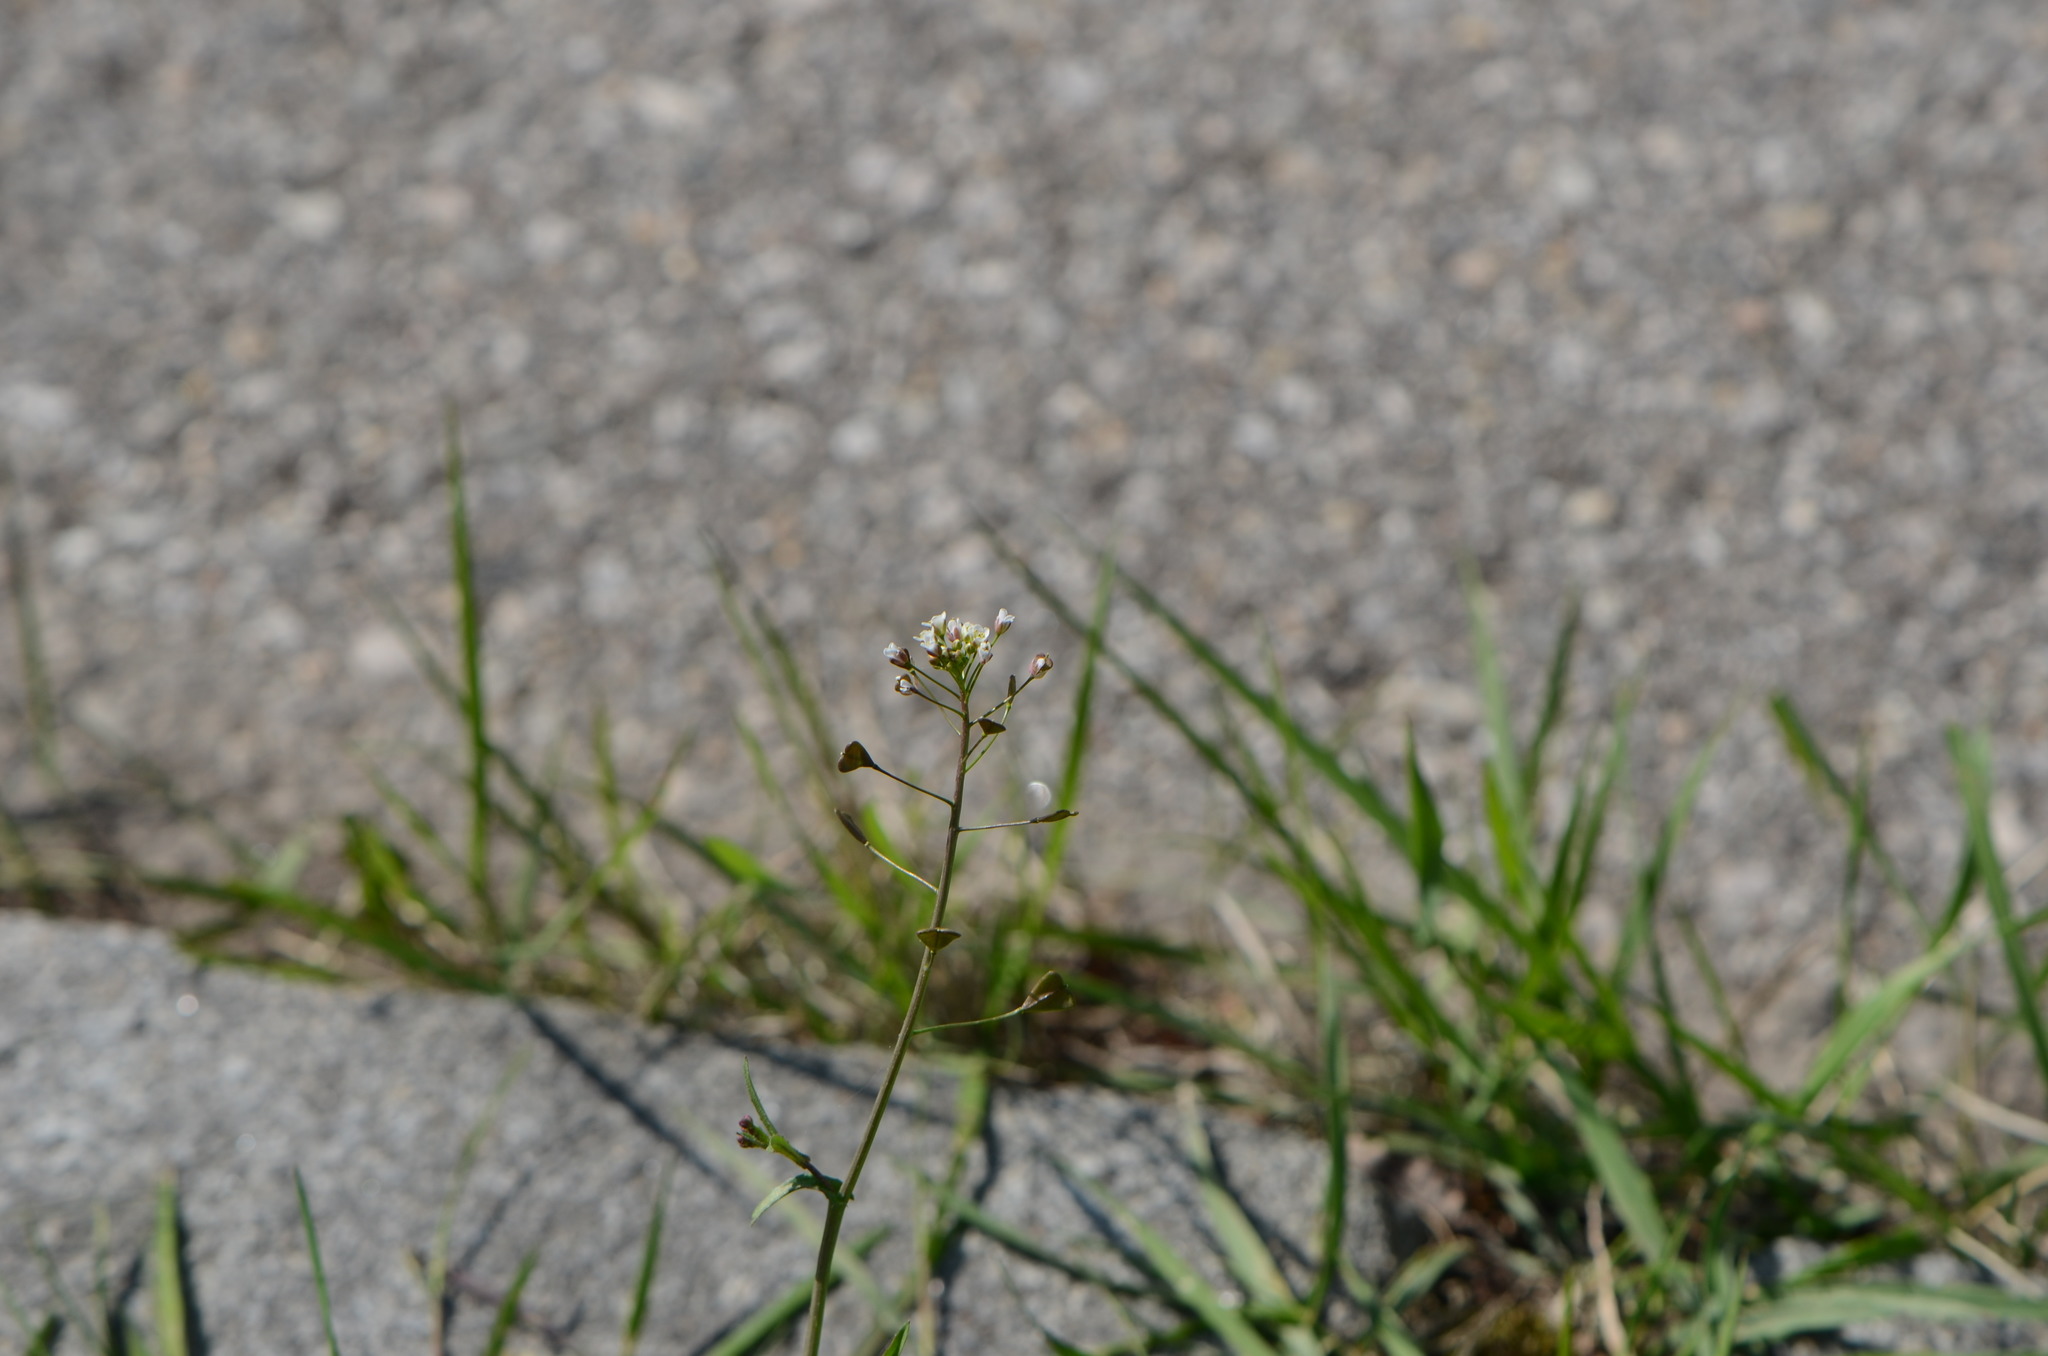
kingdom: Plantae
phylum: Tracheophyta
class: Magnoliopsida
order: Brassicales
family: Brassicaceae
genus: Capsella
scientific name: Capsella bursa-pastoris
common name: Shepherd's purse
